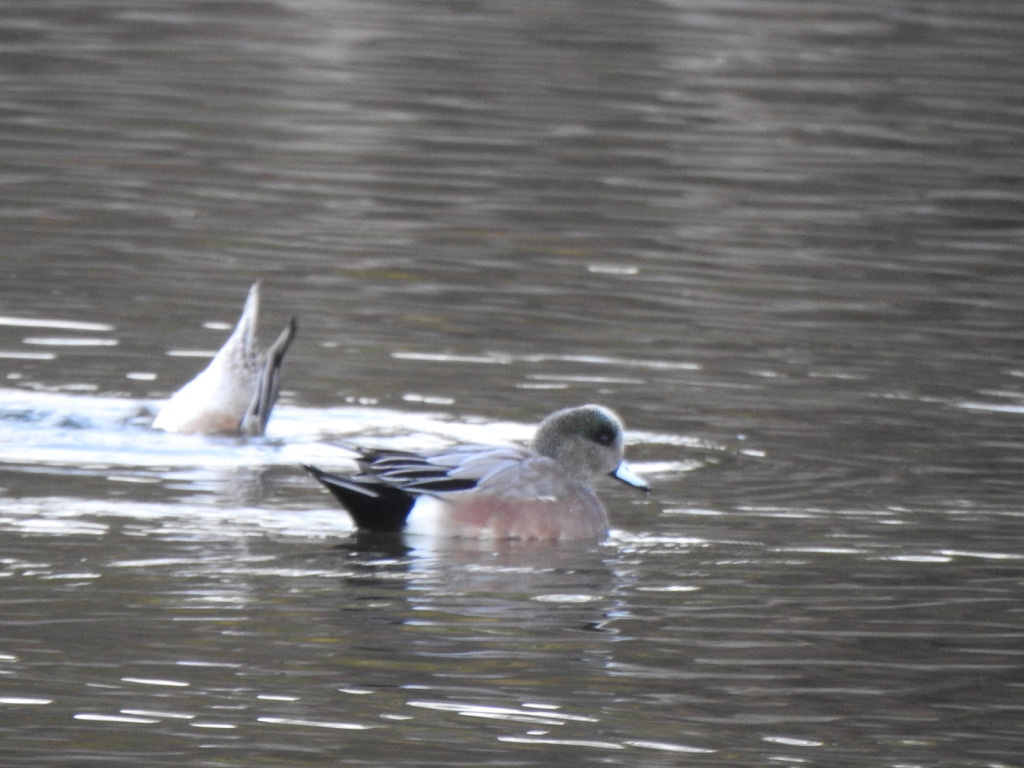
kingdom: Animalia
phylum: Chordata
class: Aves
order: Anseriformes
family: Anatidae
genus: Mareca
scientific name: Mareca americana
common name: American wigeon
